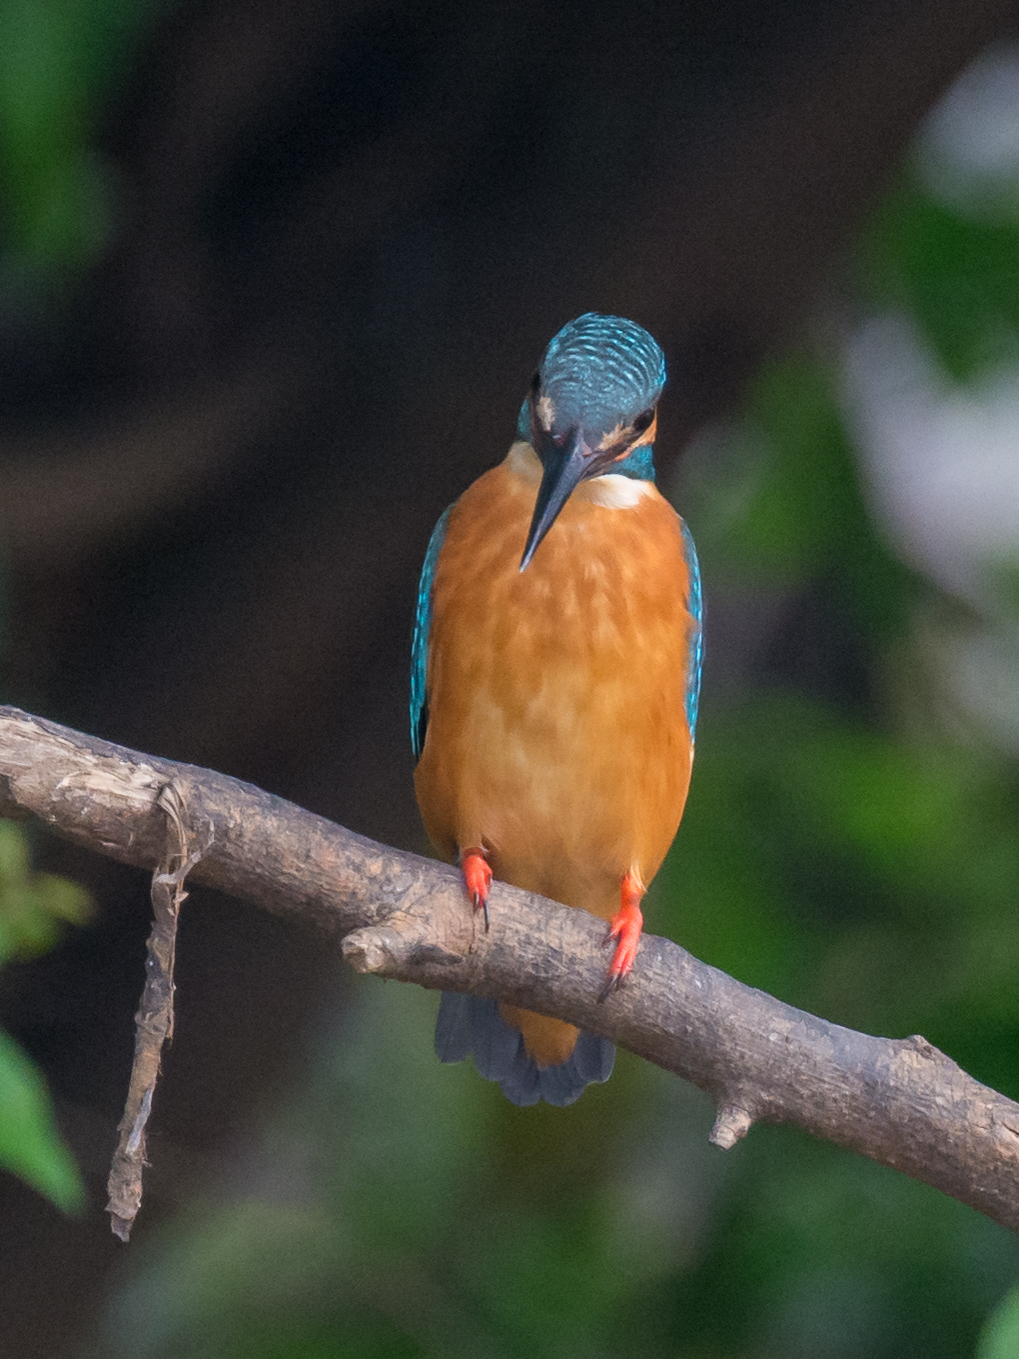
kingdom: Animalia
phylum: Chordata
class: Aves
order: Coraciiformes
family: Alcedinidae
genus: Alcedo
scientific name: Alcedo atthis
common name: Common kingfisher
